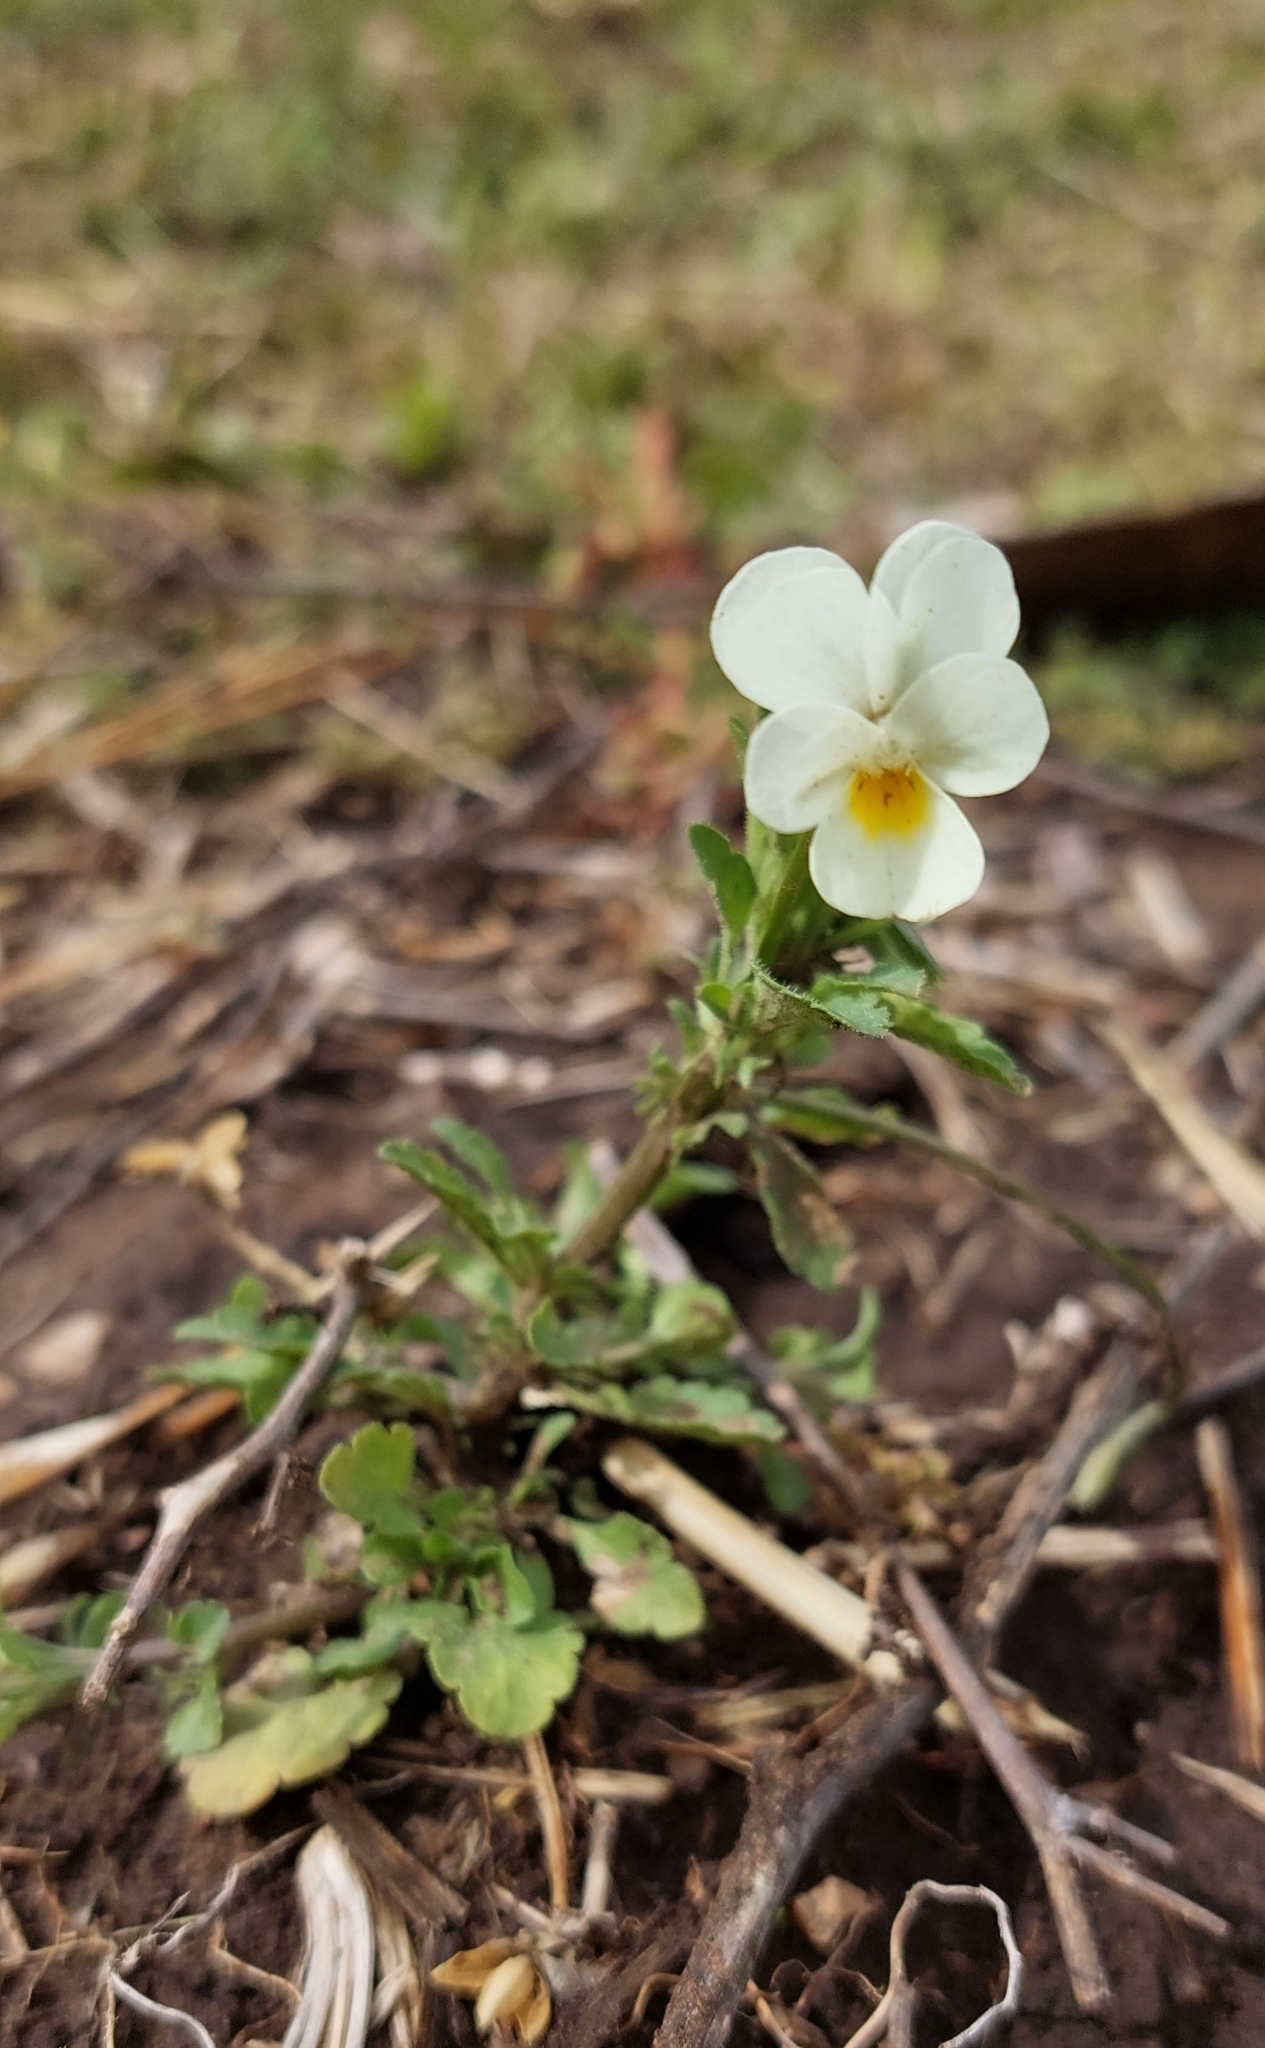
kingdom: Plantae
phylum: Tracheophyta
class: Magnoliopsida
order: Malpighiales
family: Violaceae
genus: Viola
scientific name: Viola arvensis
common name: Field pansy
